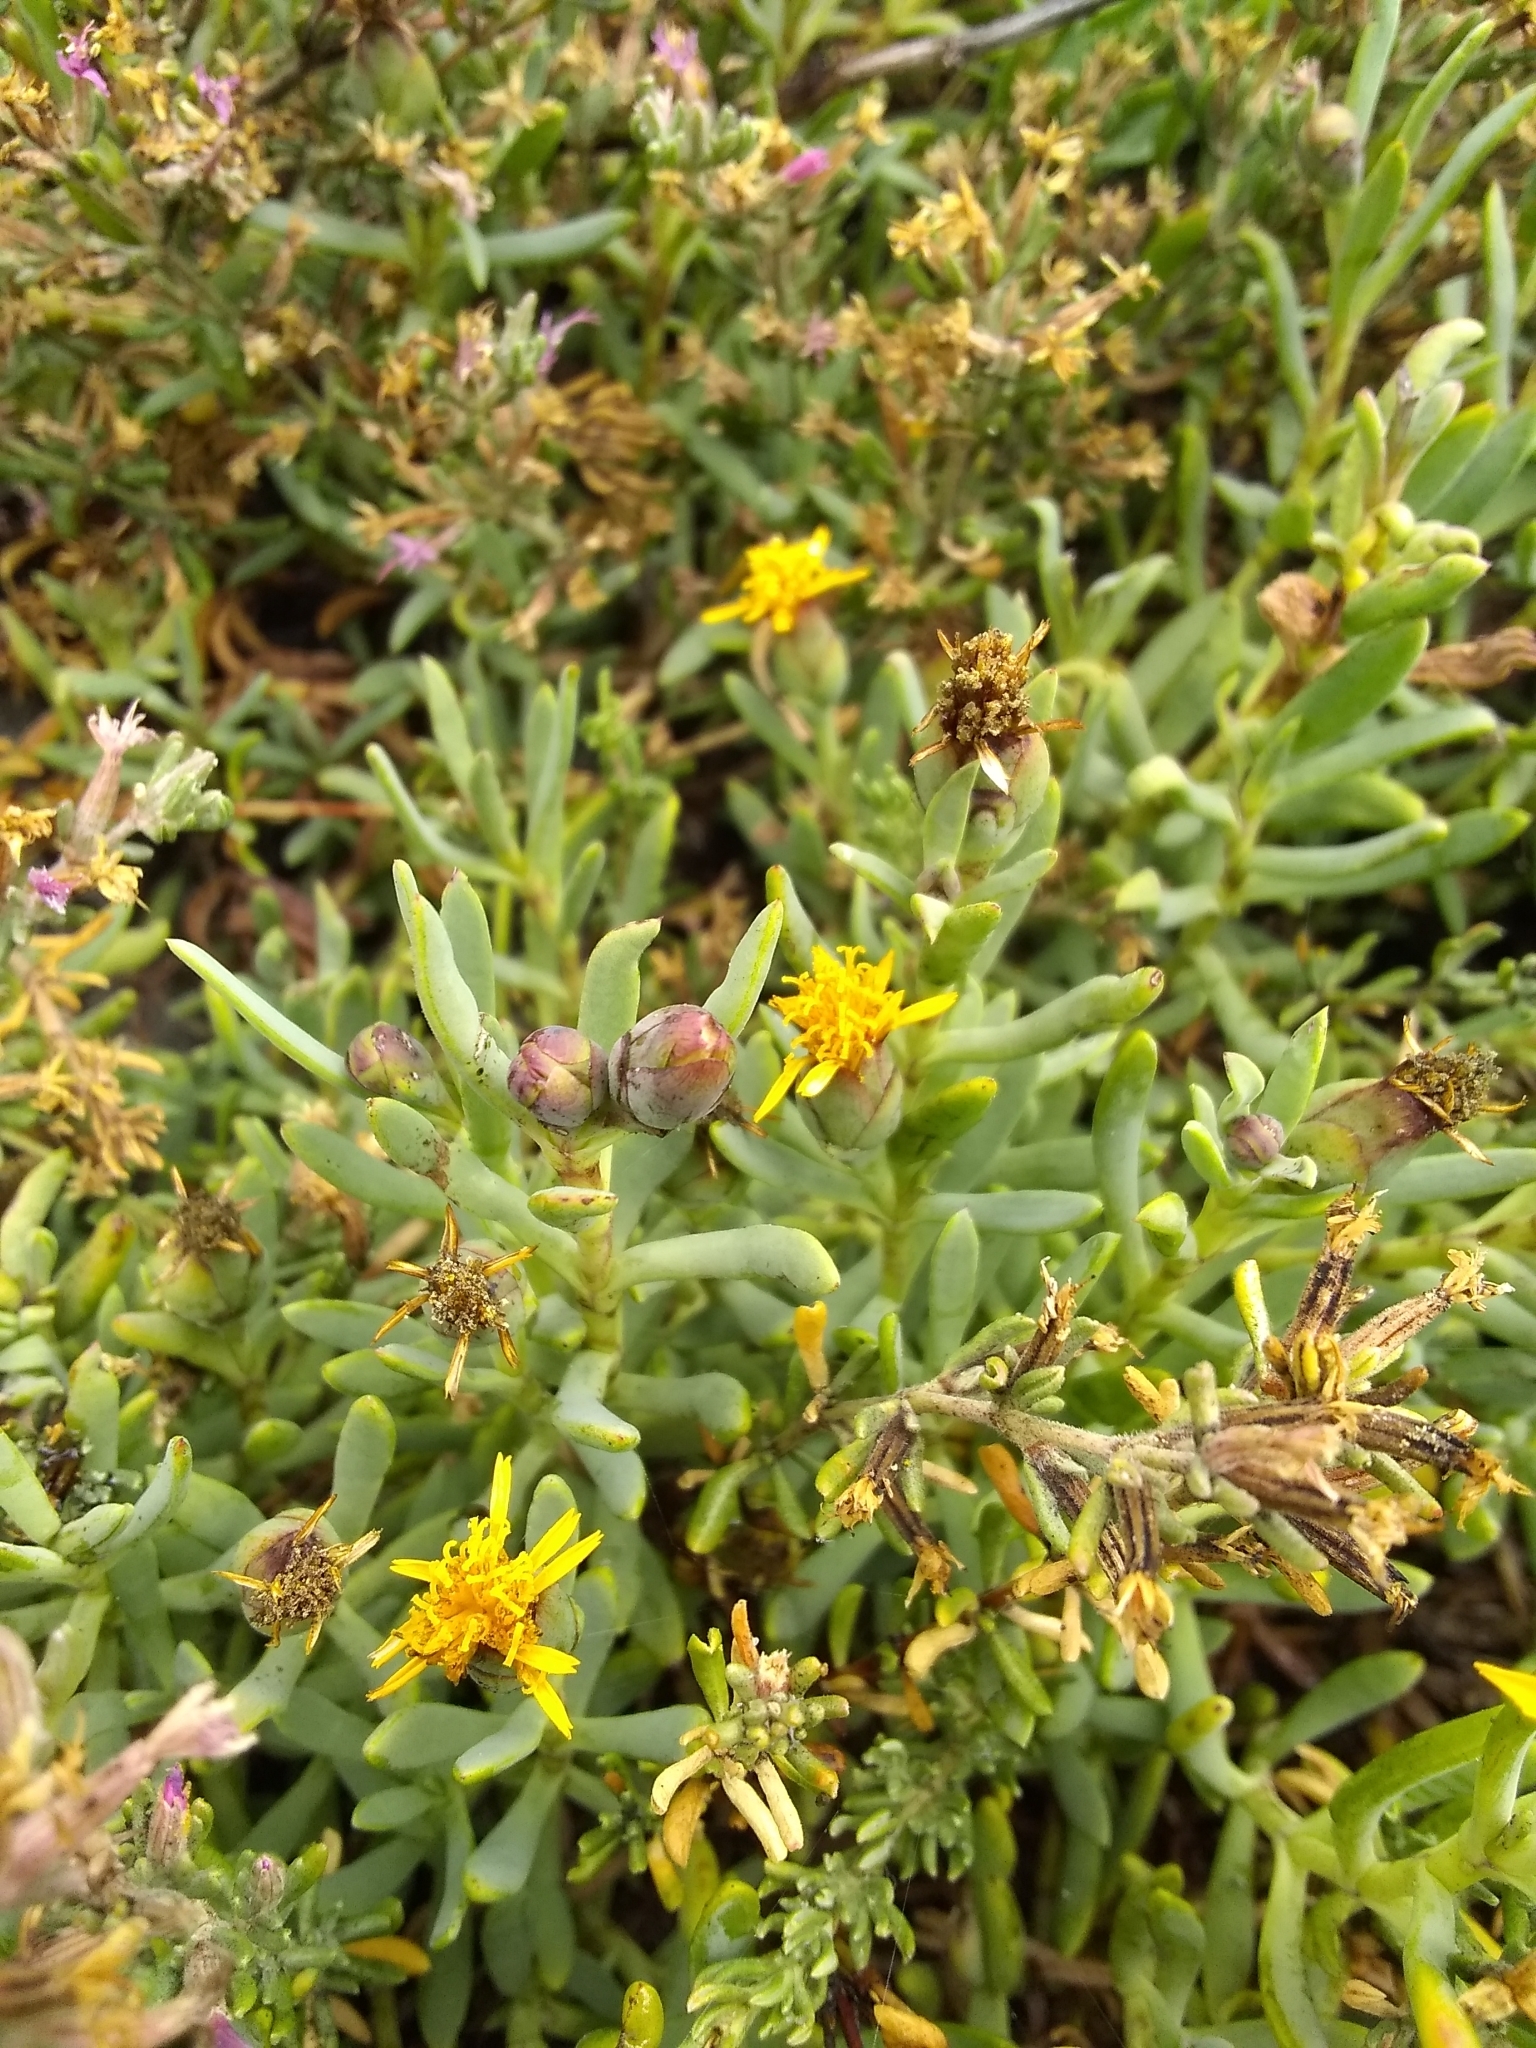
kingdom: Plantae
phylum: Tracheophyta
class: Magnoliopsida
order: Asterales
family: Asteraceae
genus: Jaumea
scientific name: Jaumea carnosa
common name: Fleshy jaumea
